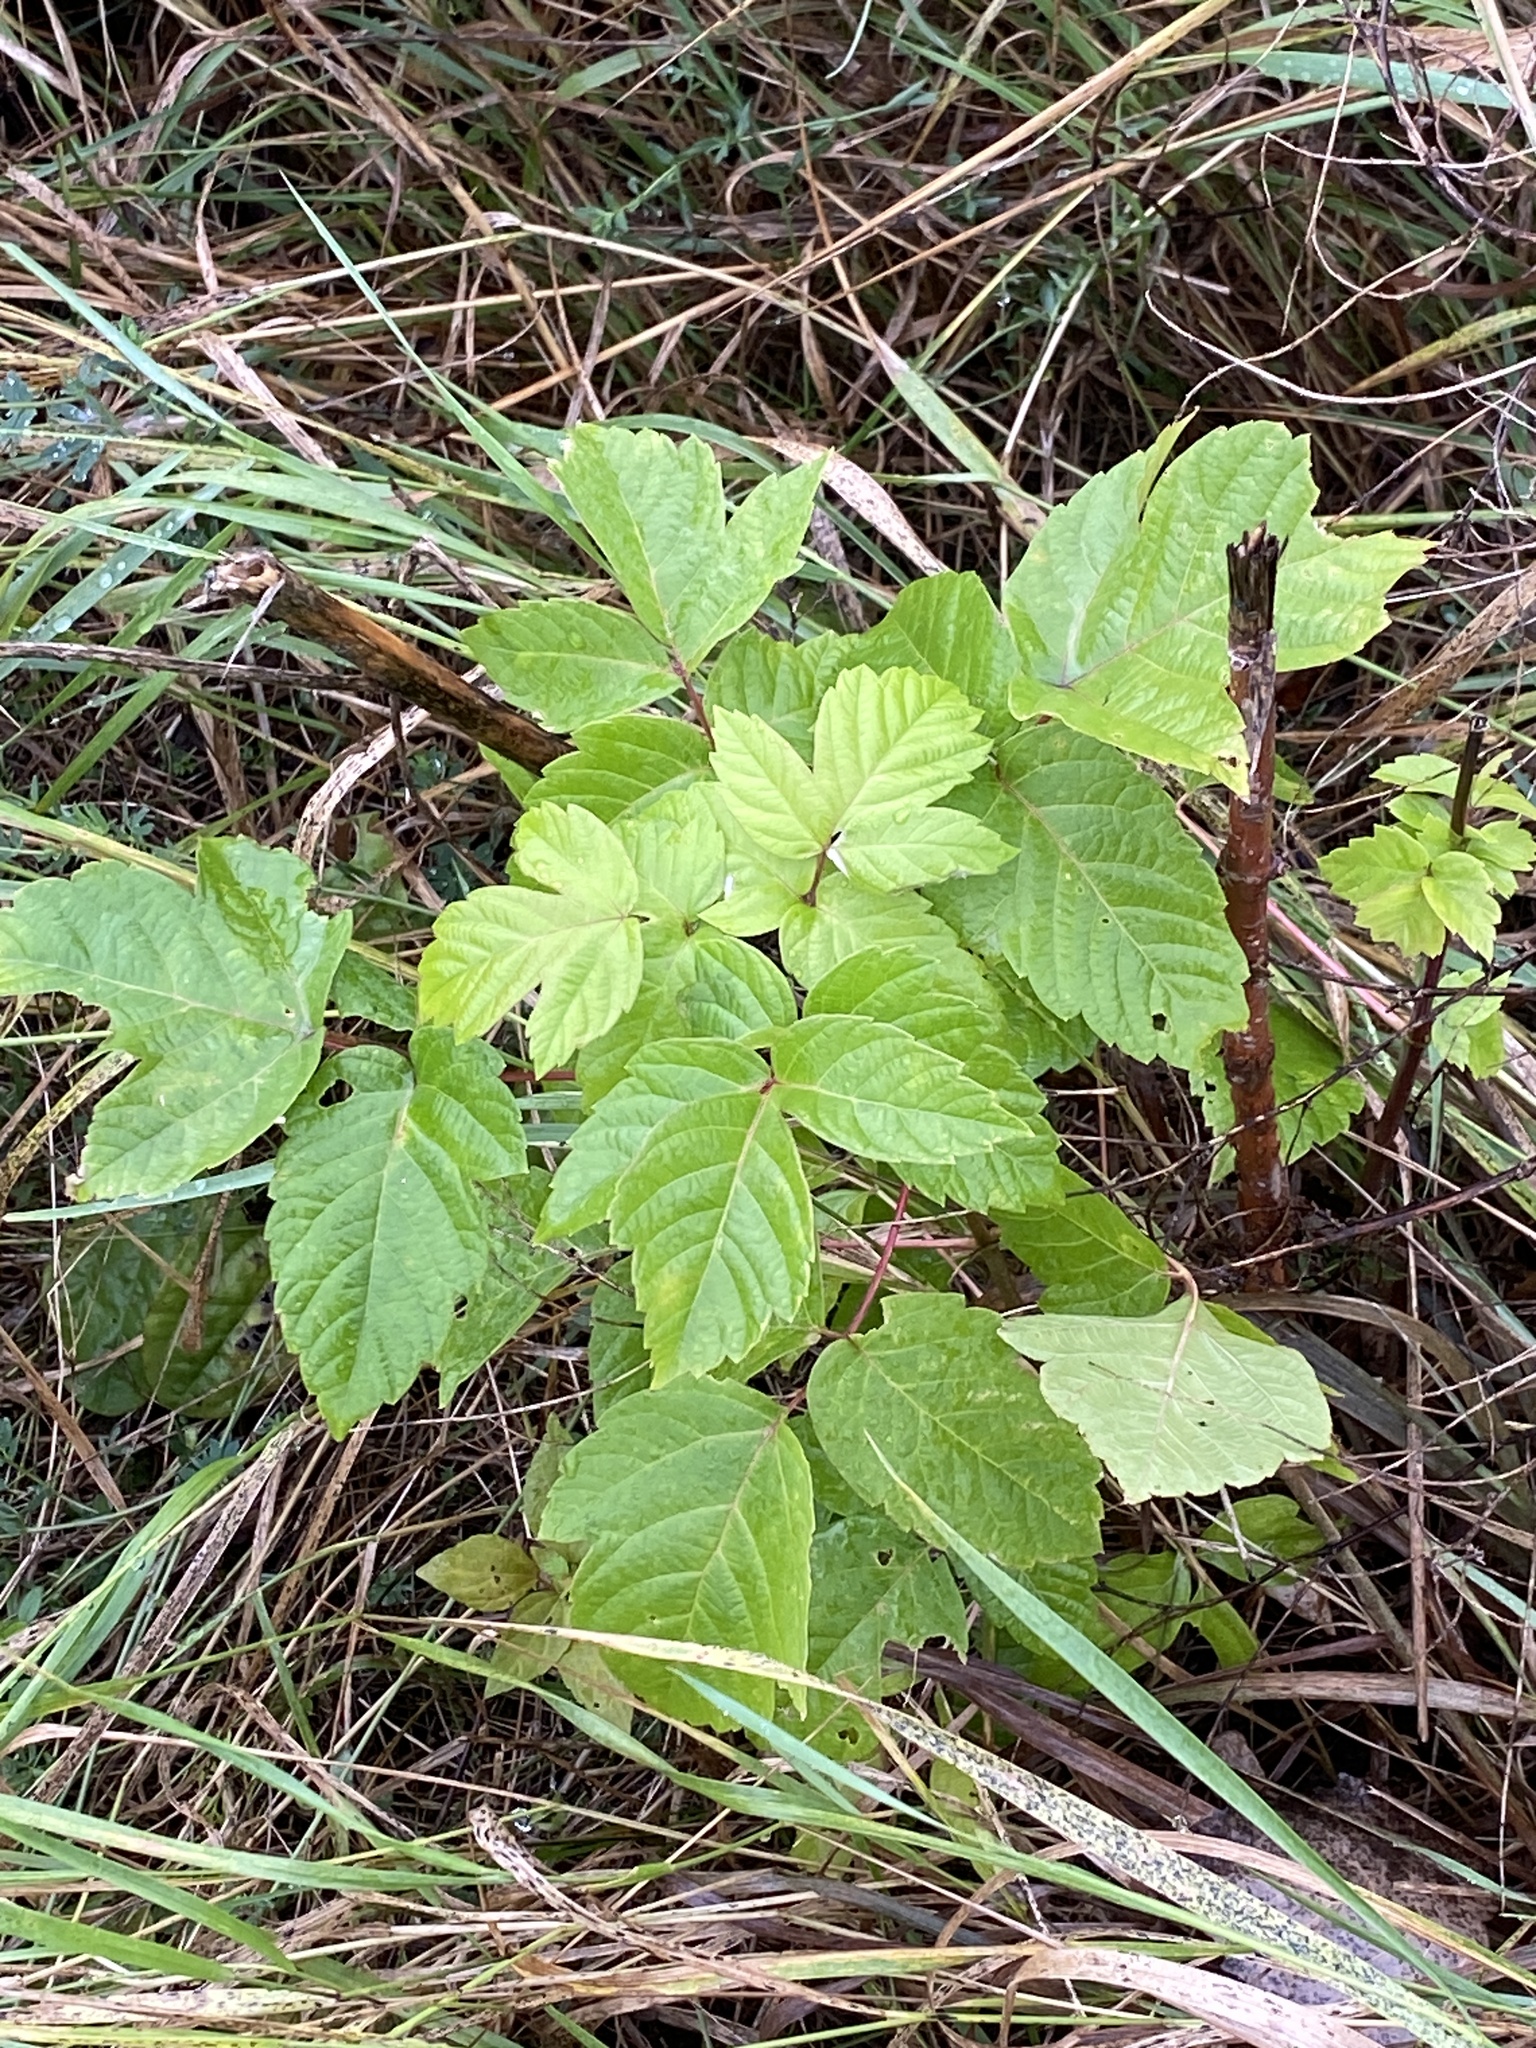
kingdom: Plantae
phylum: Tracheophyta
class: Magnoliopsida
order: Sapindales
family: Sapindaceae
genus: Acer
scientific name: Acer negundo
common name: Ashleaf maple
